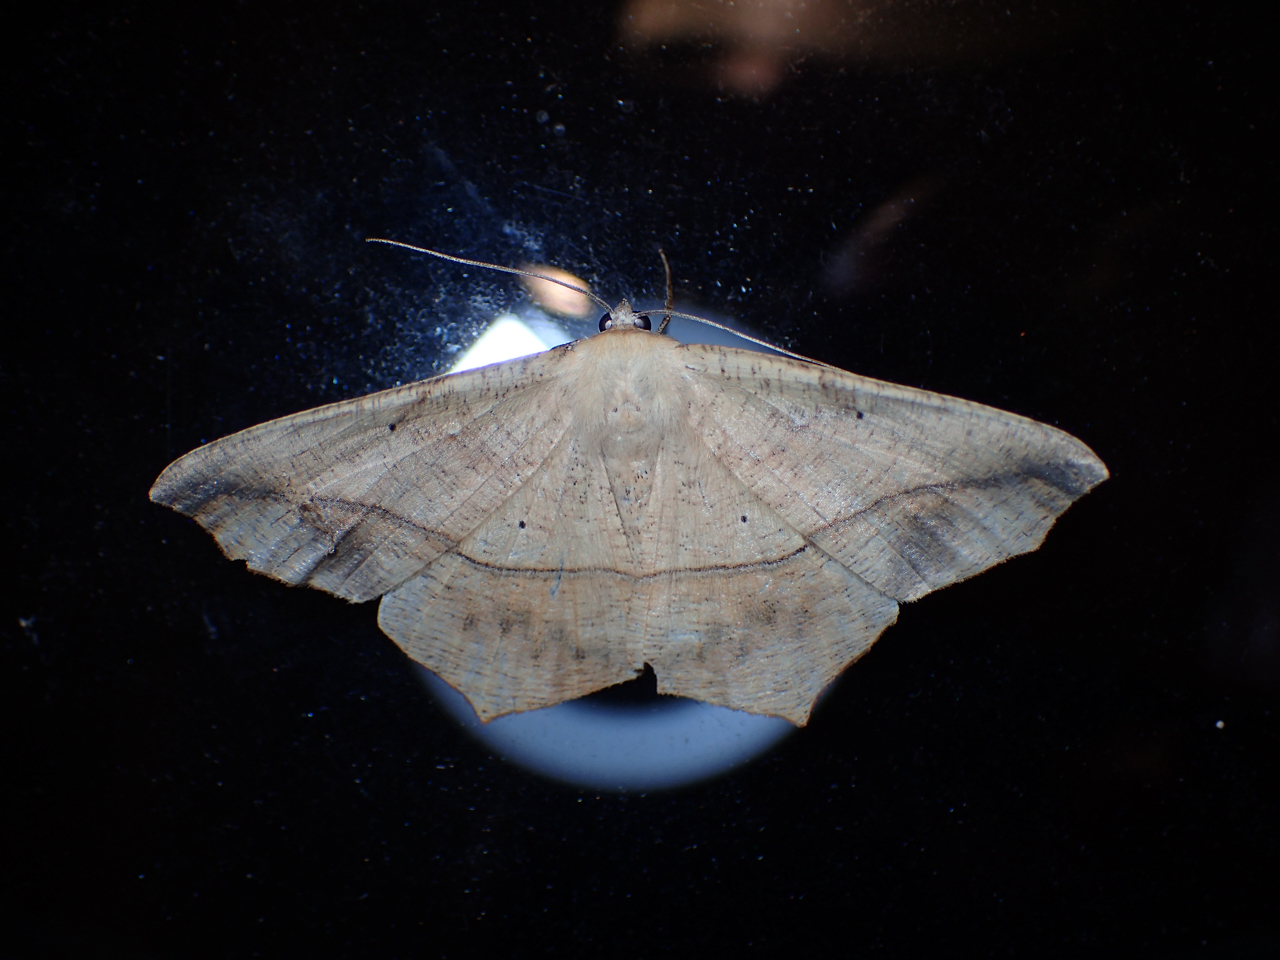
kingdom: Animalia
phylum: Arthropoda
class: Insecta
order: Lepidoptera
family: Geometridae
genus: Prochoerodes
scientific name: Prochoerodes lineola
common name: Large maple spanworm
